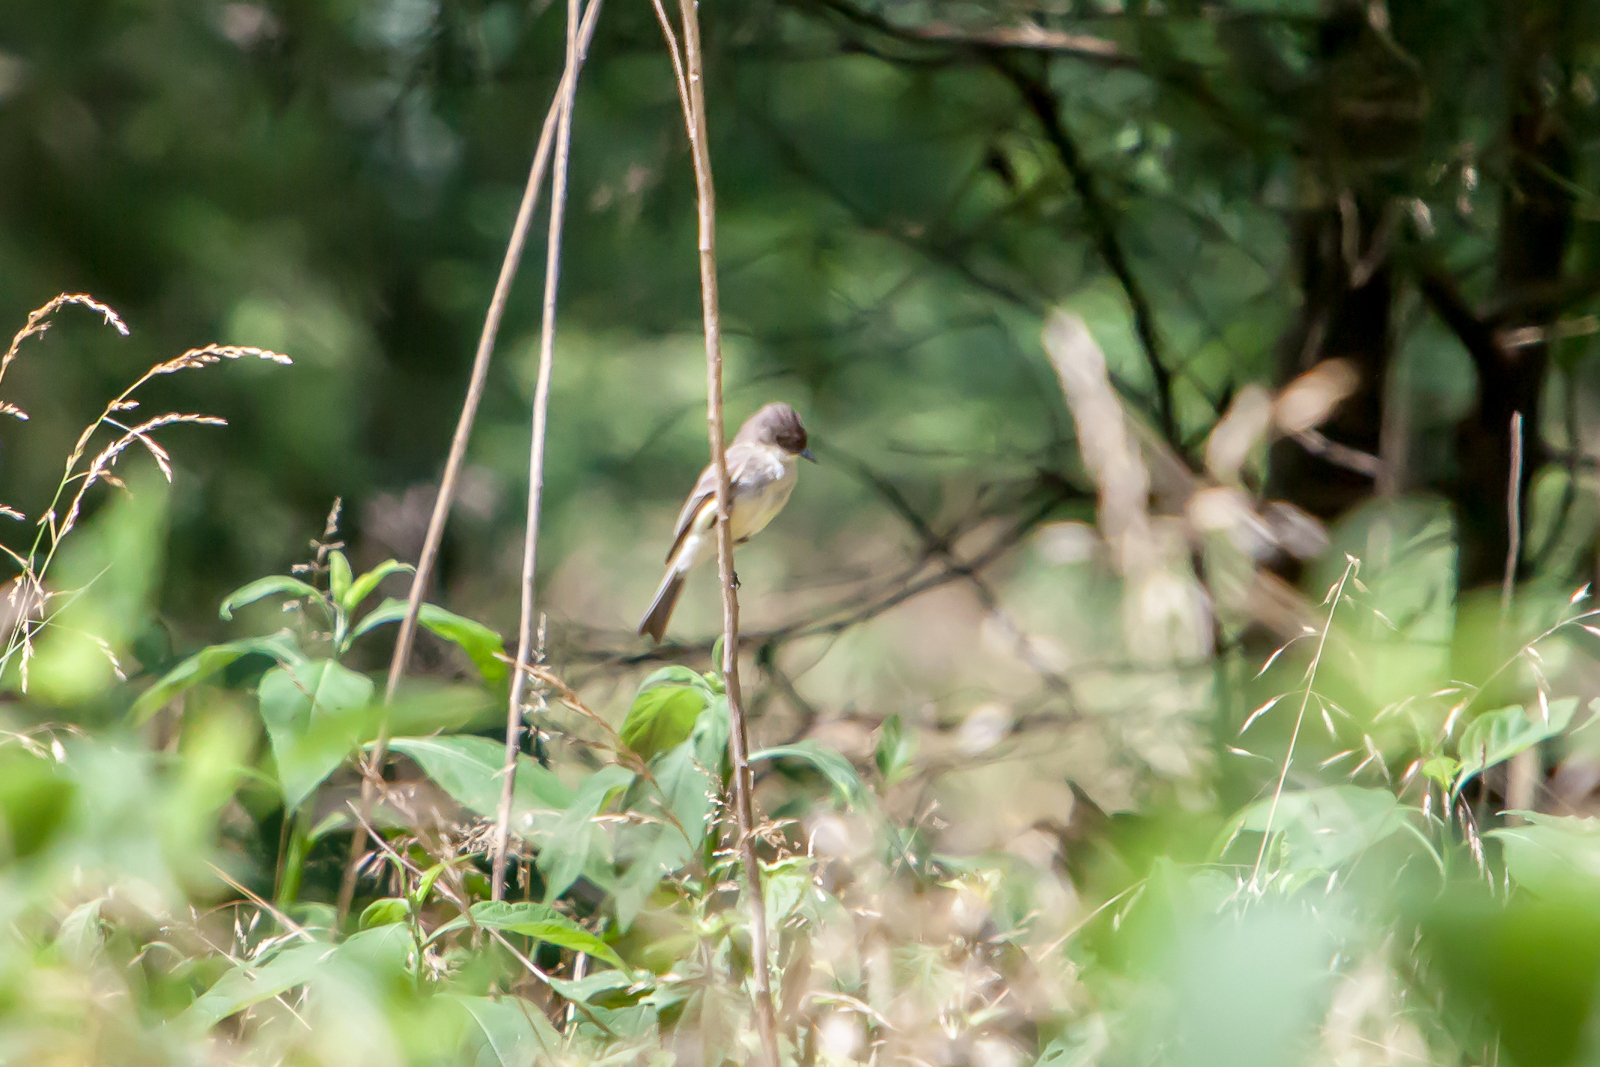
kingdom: Animalia
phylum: Chordata
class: Aves
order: Passeriformes
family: Tyrannidae
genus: Sayornis
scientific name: Sayornis phoebe
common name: Eastern phoebe
